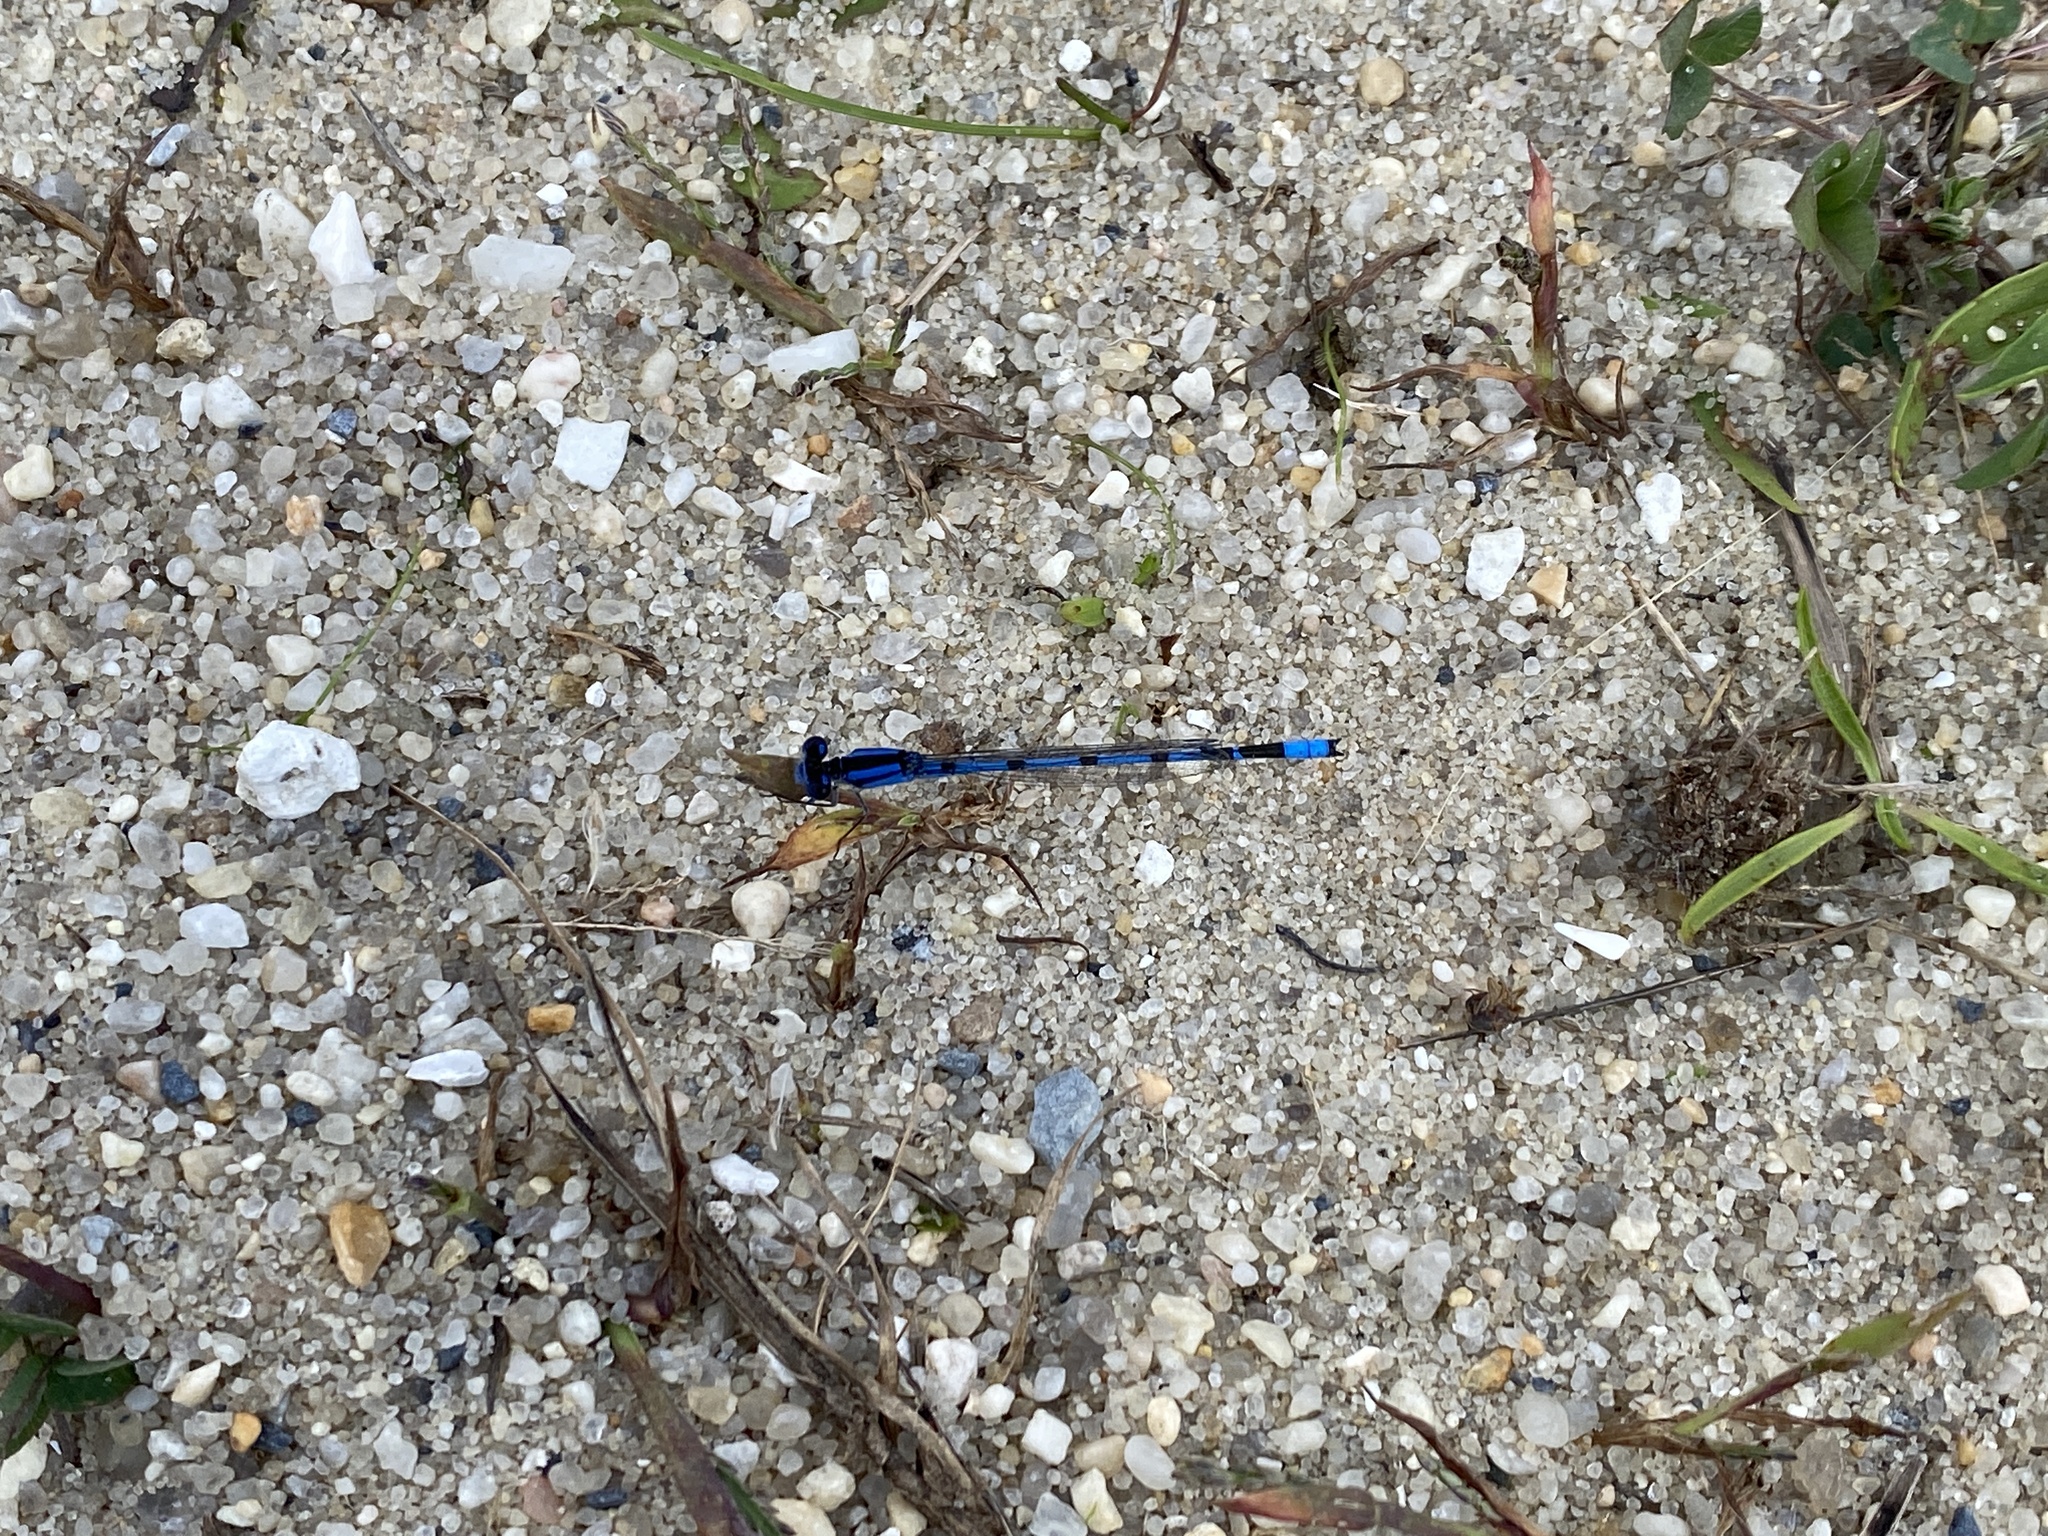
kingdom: Animalia
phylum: Arthropoda
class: Insecta
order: Odonata
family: Coenagrionidae
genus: Enallagma
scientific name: Enallagma civile
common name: Damselfly
